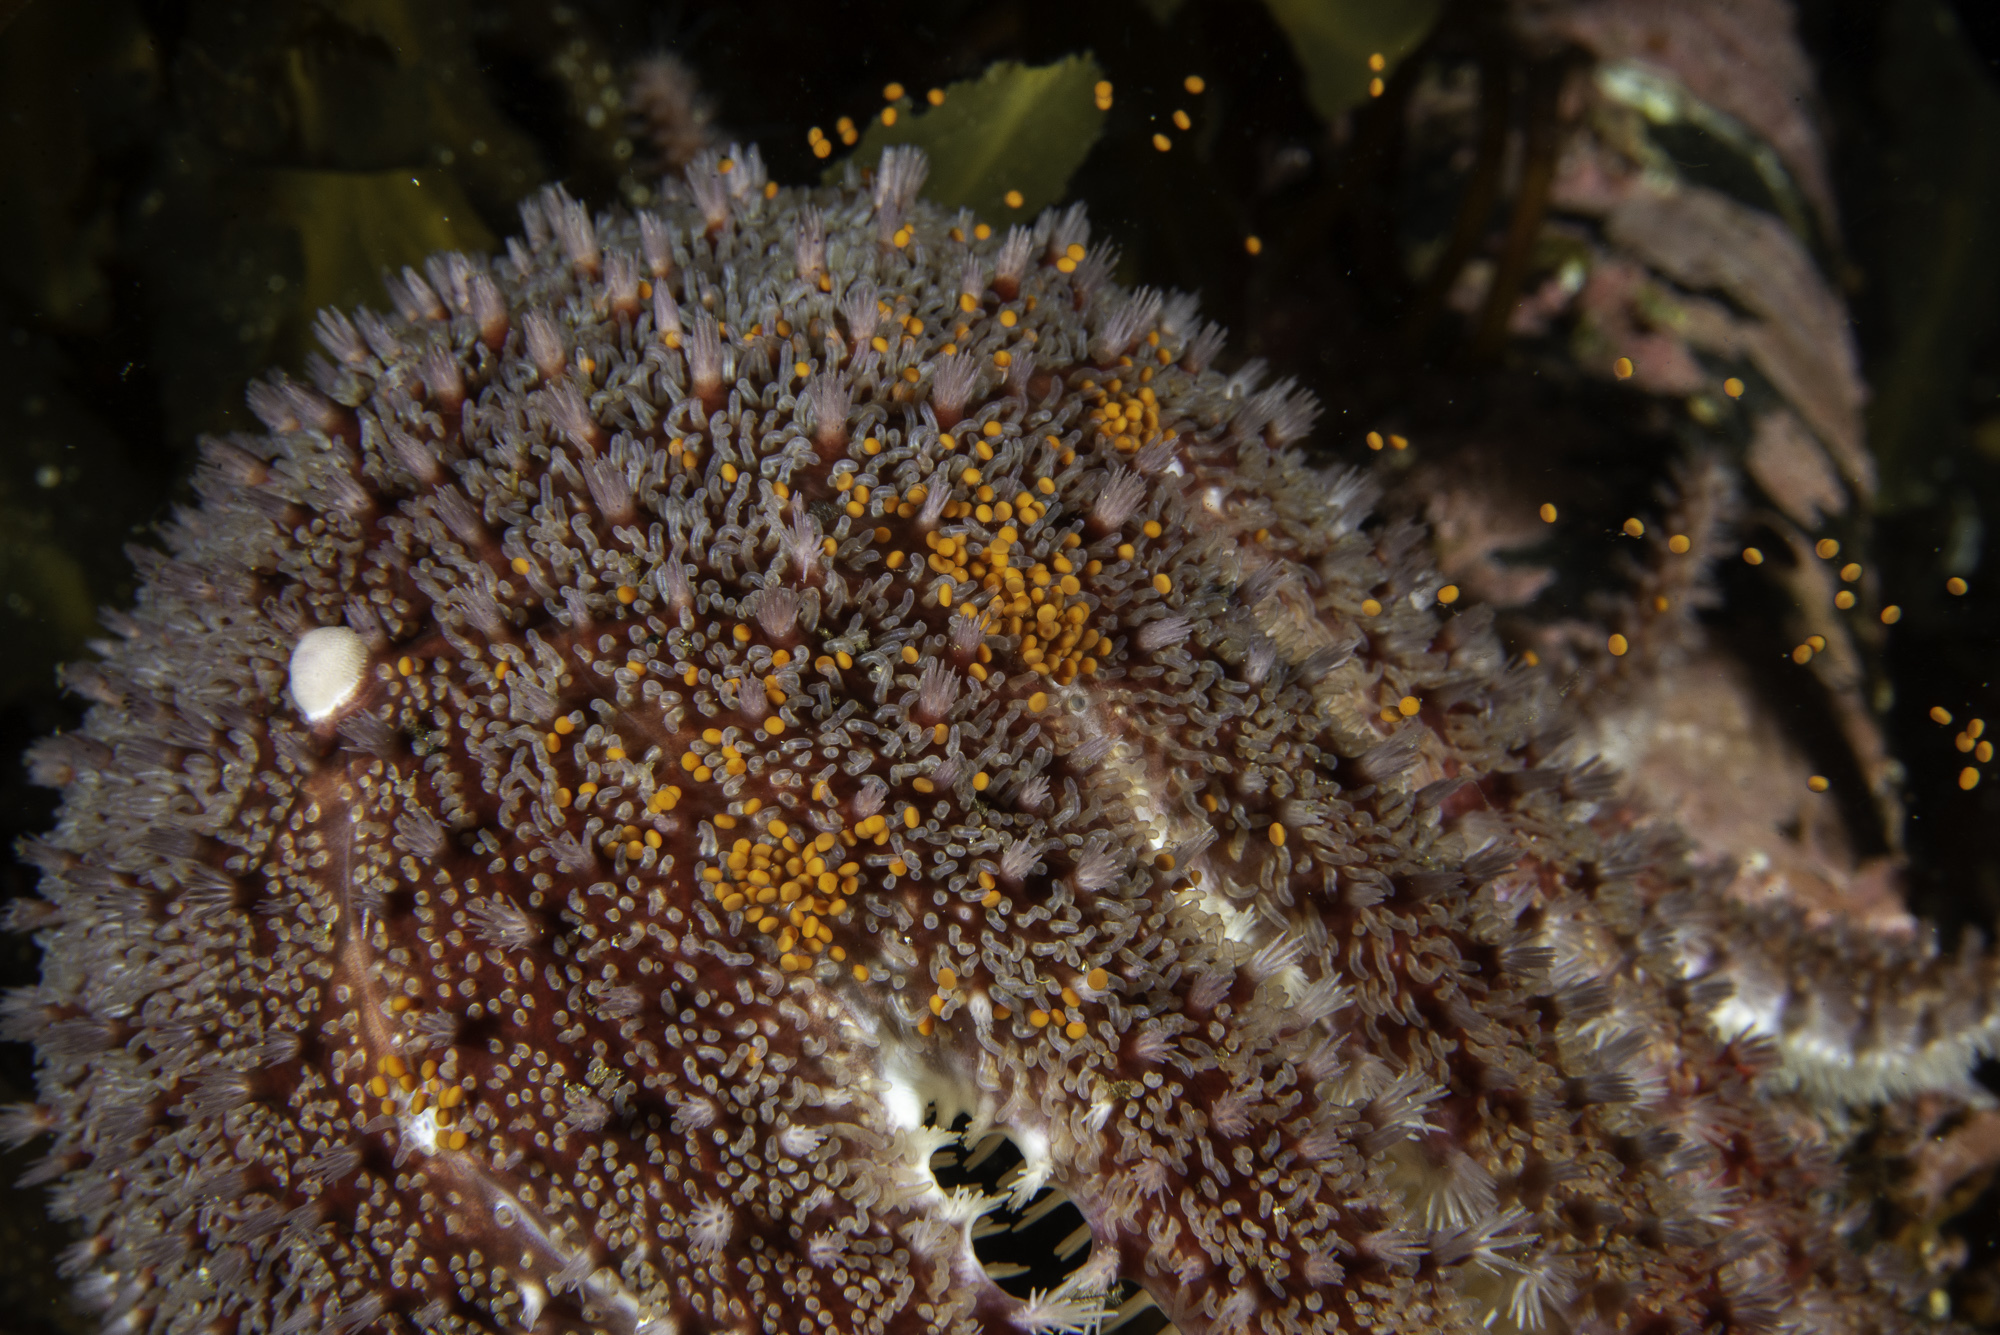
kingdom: Animalia
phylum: Echinodermata
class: Asteroidea
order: Valvatida
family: Solasteridae
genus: Crossaster
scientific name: Crossaster papposus
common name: Common sun star
